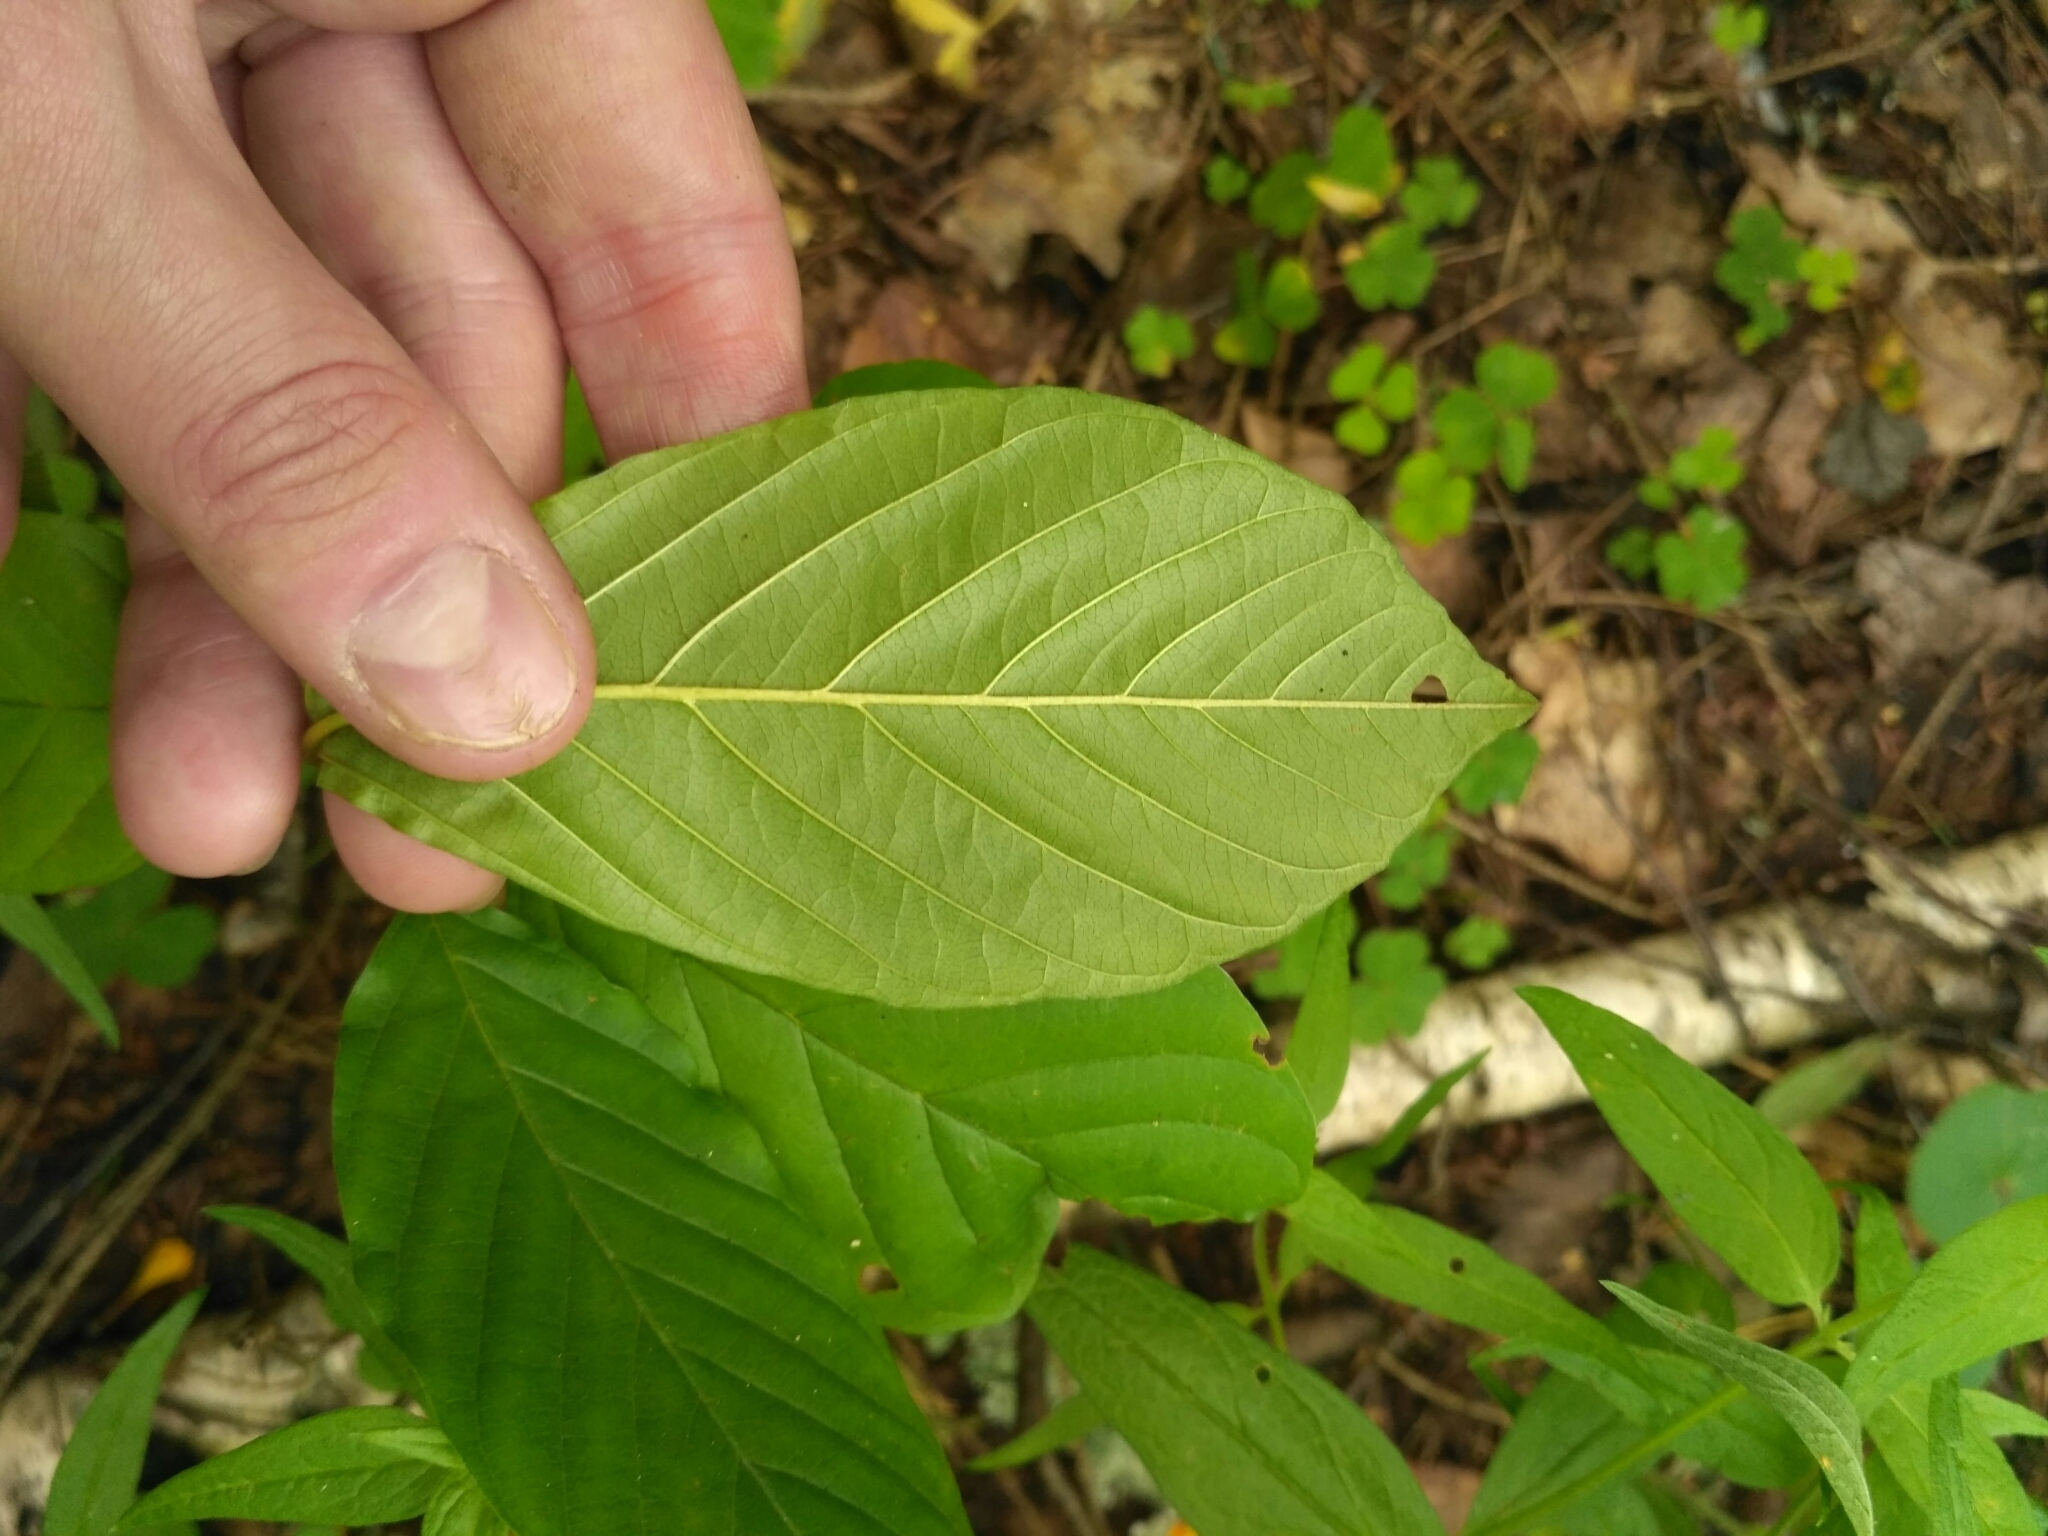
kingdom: Plantae
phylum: Tracheophyta
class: Magnoliopsida
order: Rosales
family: Rhamnaceae
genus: Frangula
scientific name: Frangula alnus
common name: Alder buckthorn
